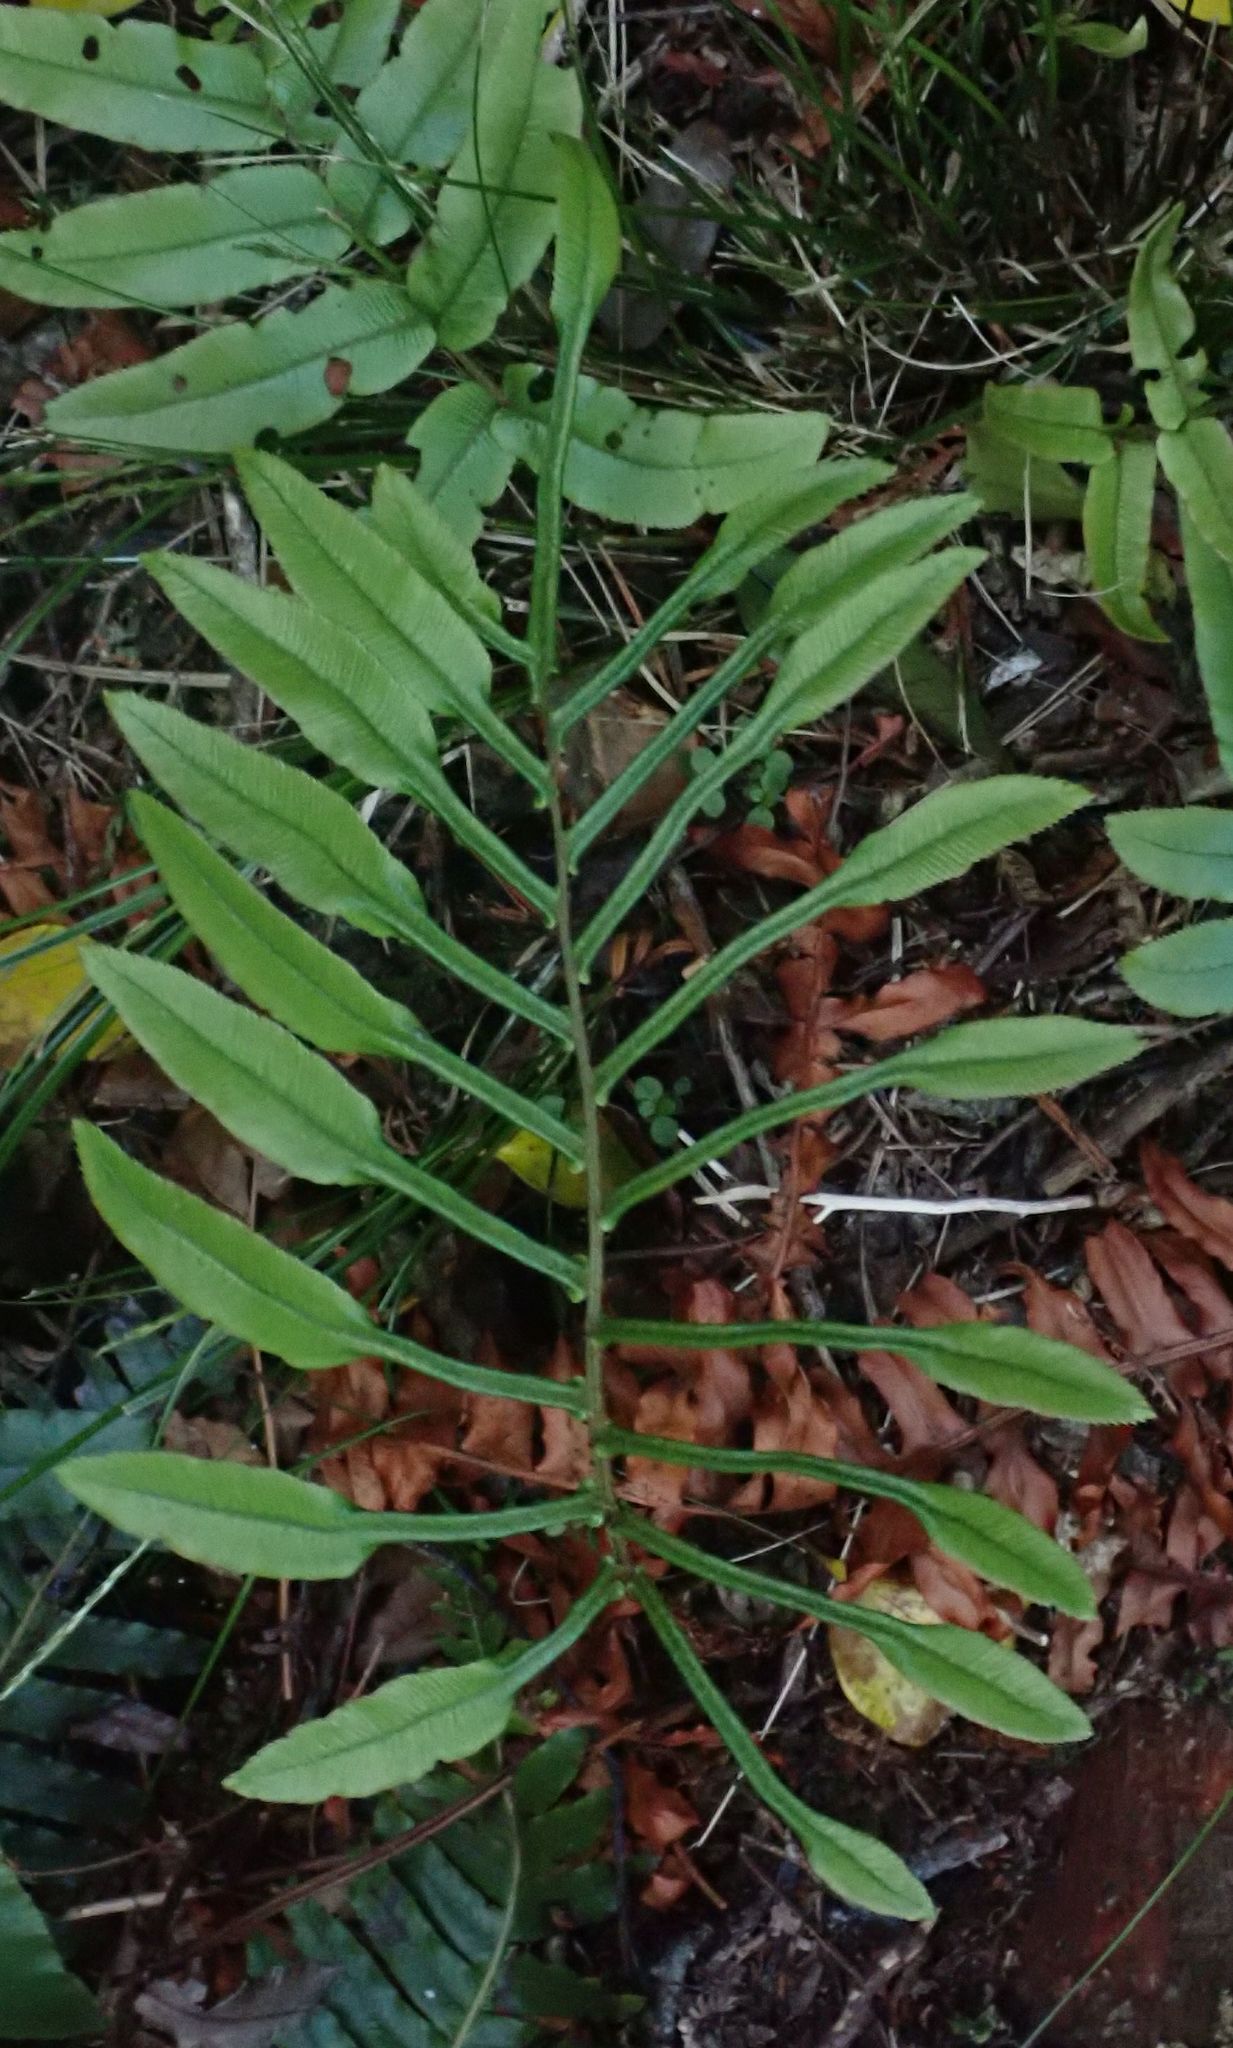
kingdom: Plantae
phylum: Tracheophyta
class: Polypodiopsida
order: Polypodiales
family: Blechnaceae
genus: Parablechnum
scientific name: Parablechnum procerum
